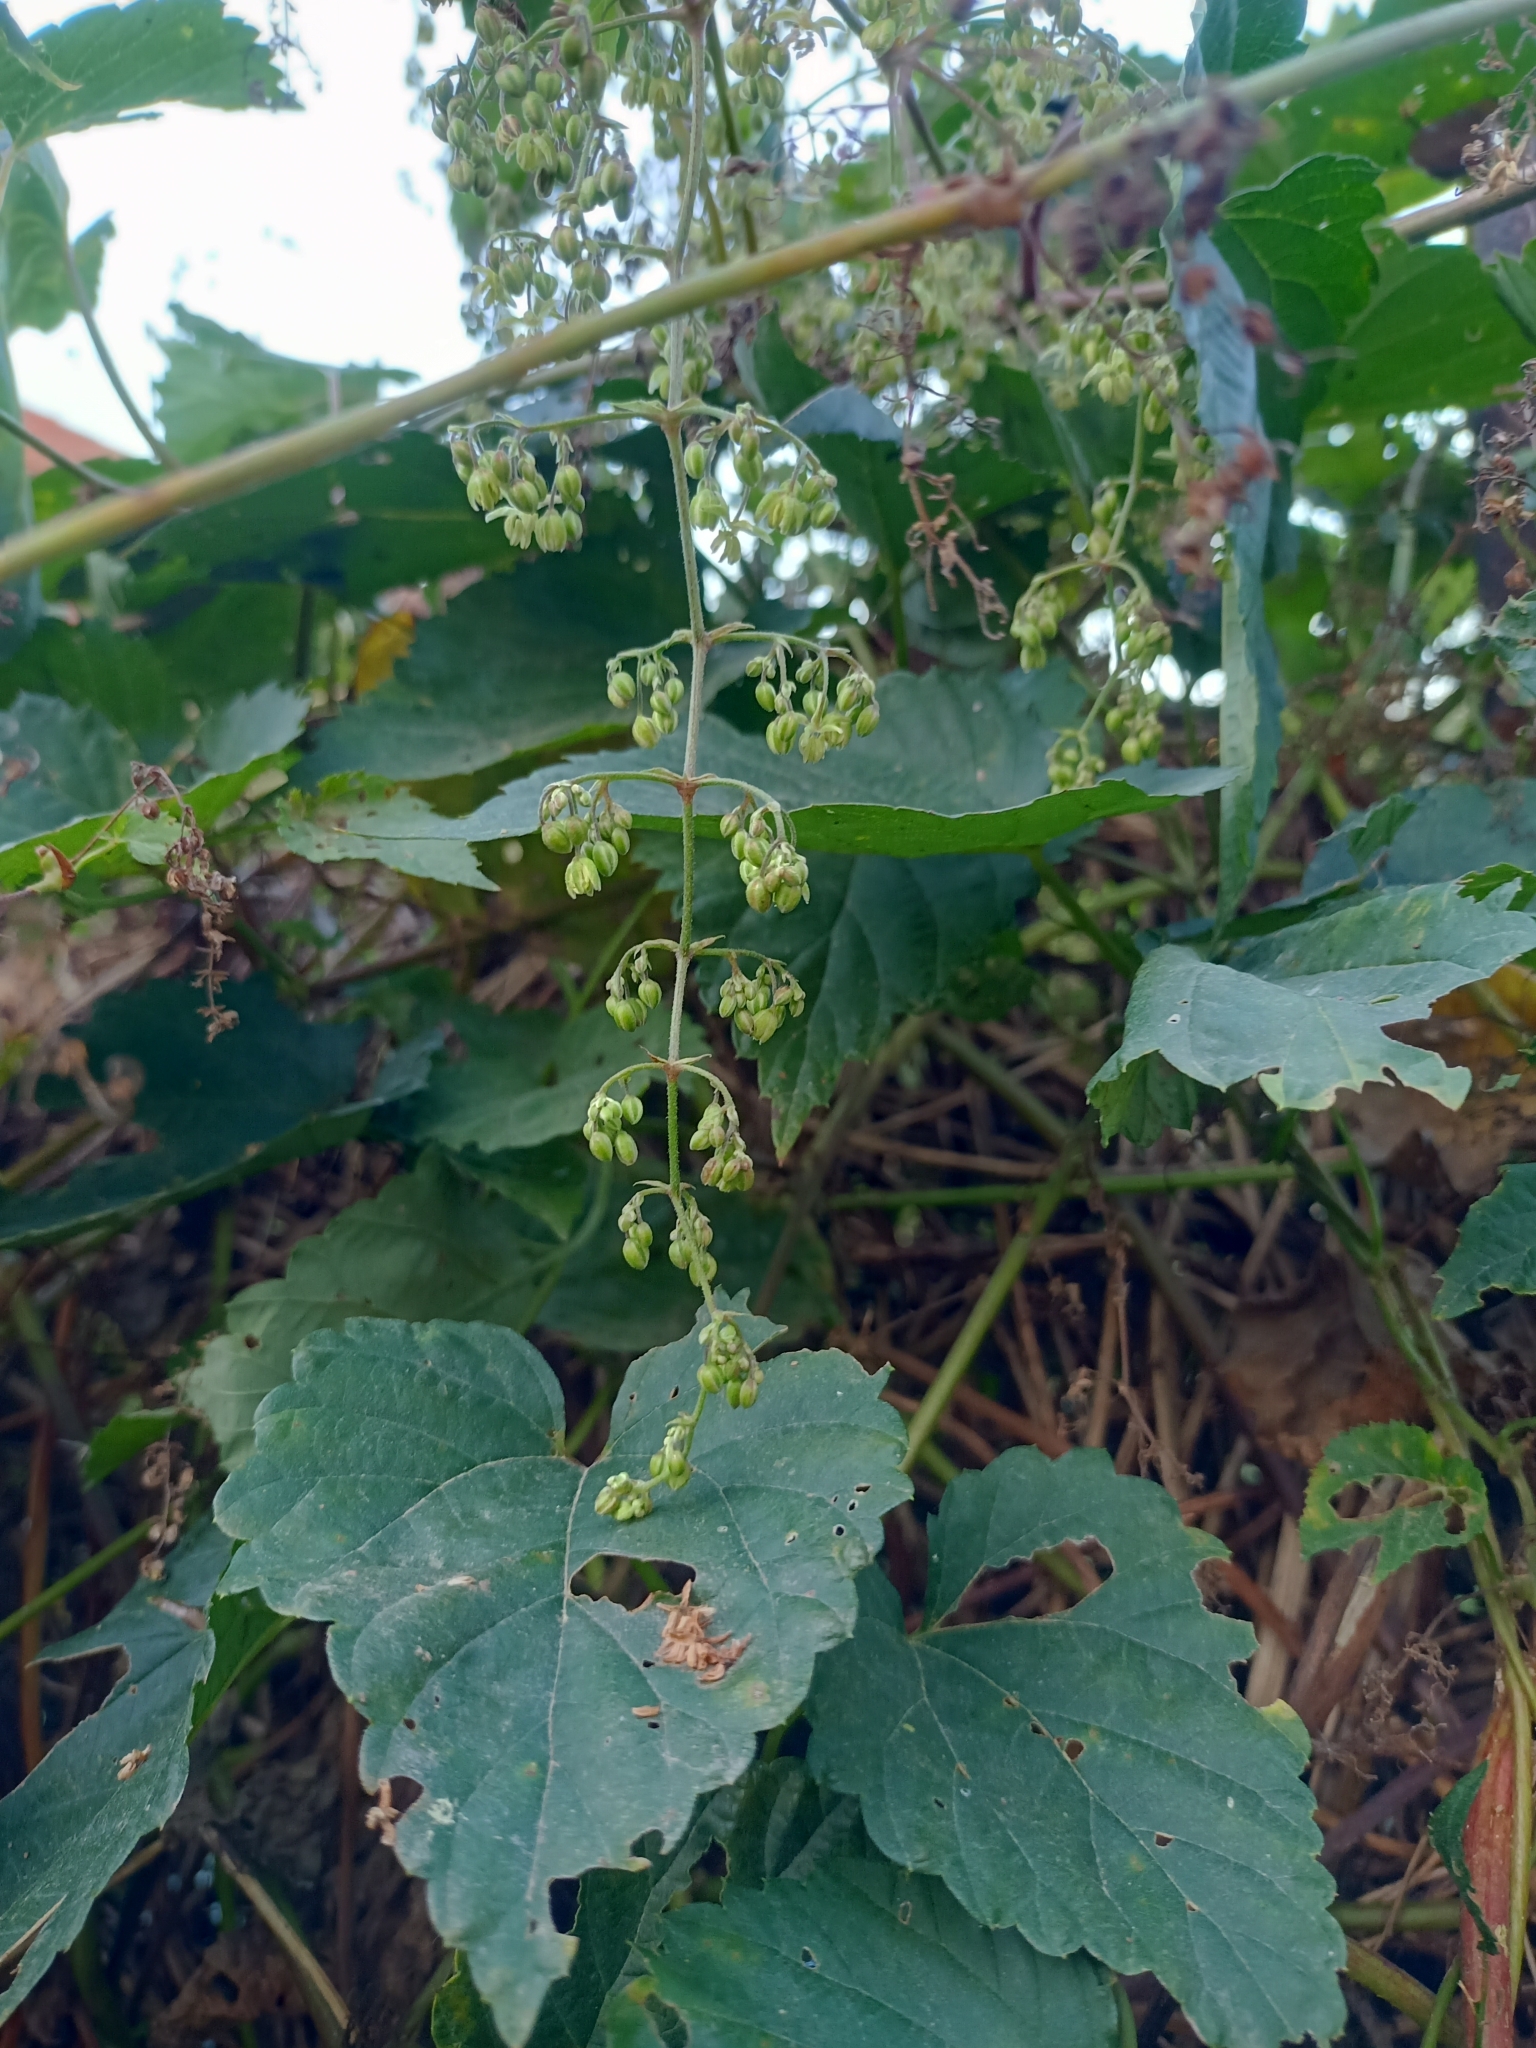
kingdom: Plantae
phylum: Tracheophyta
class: Magnoliopsida
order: Rosales
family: Cannabaceae
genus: Humulus
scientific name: Humulus lupulus
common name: Hop
